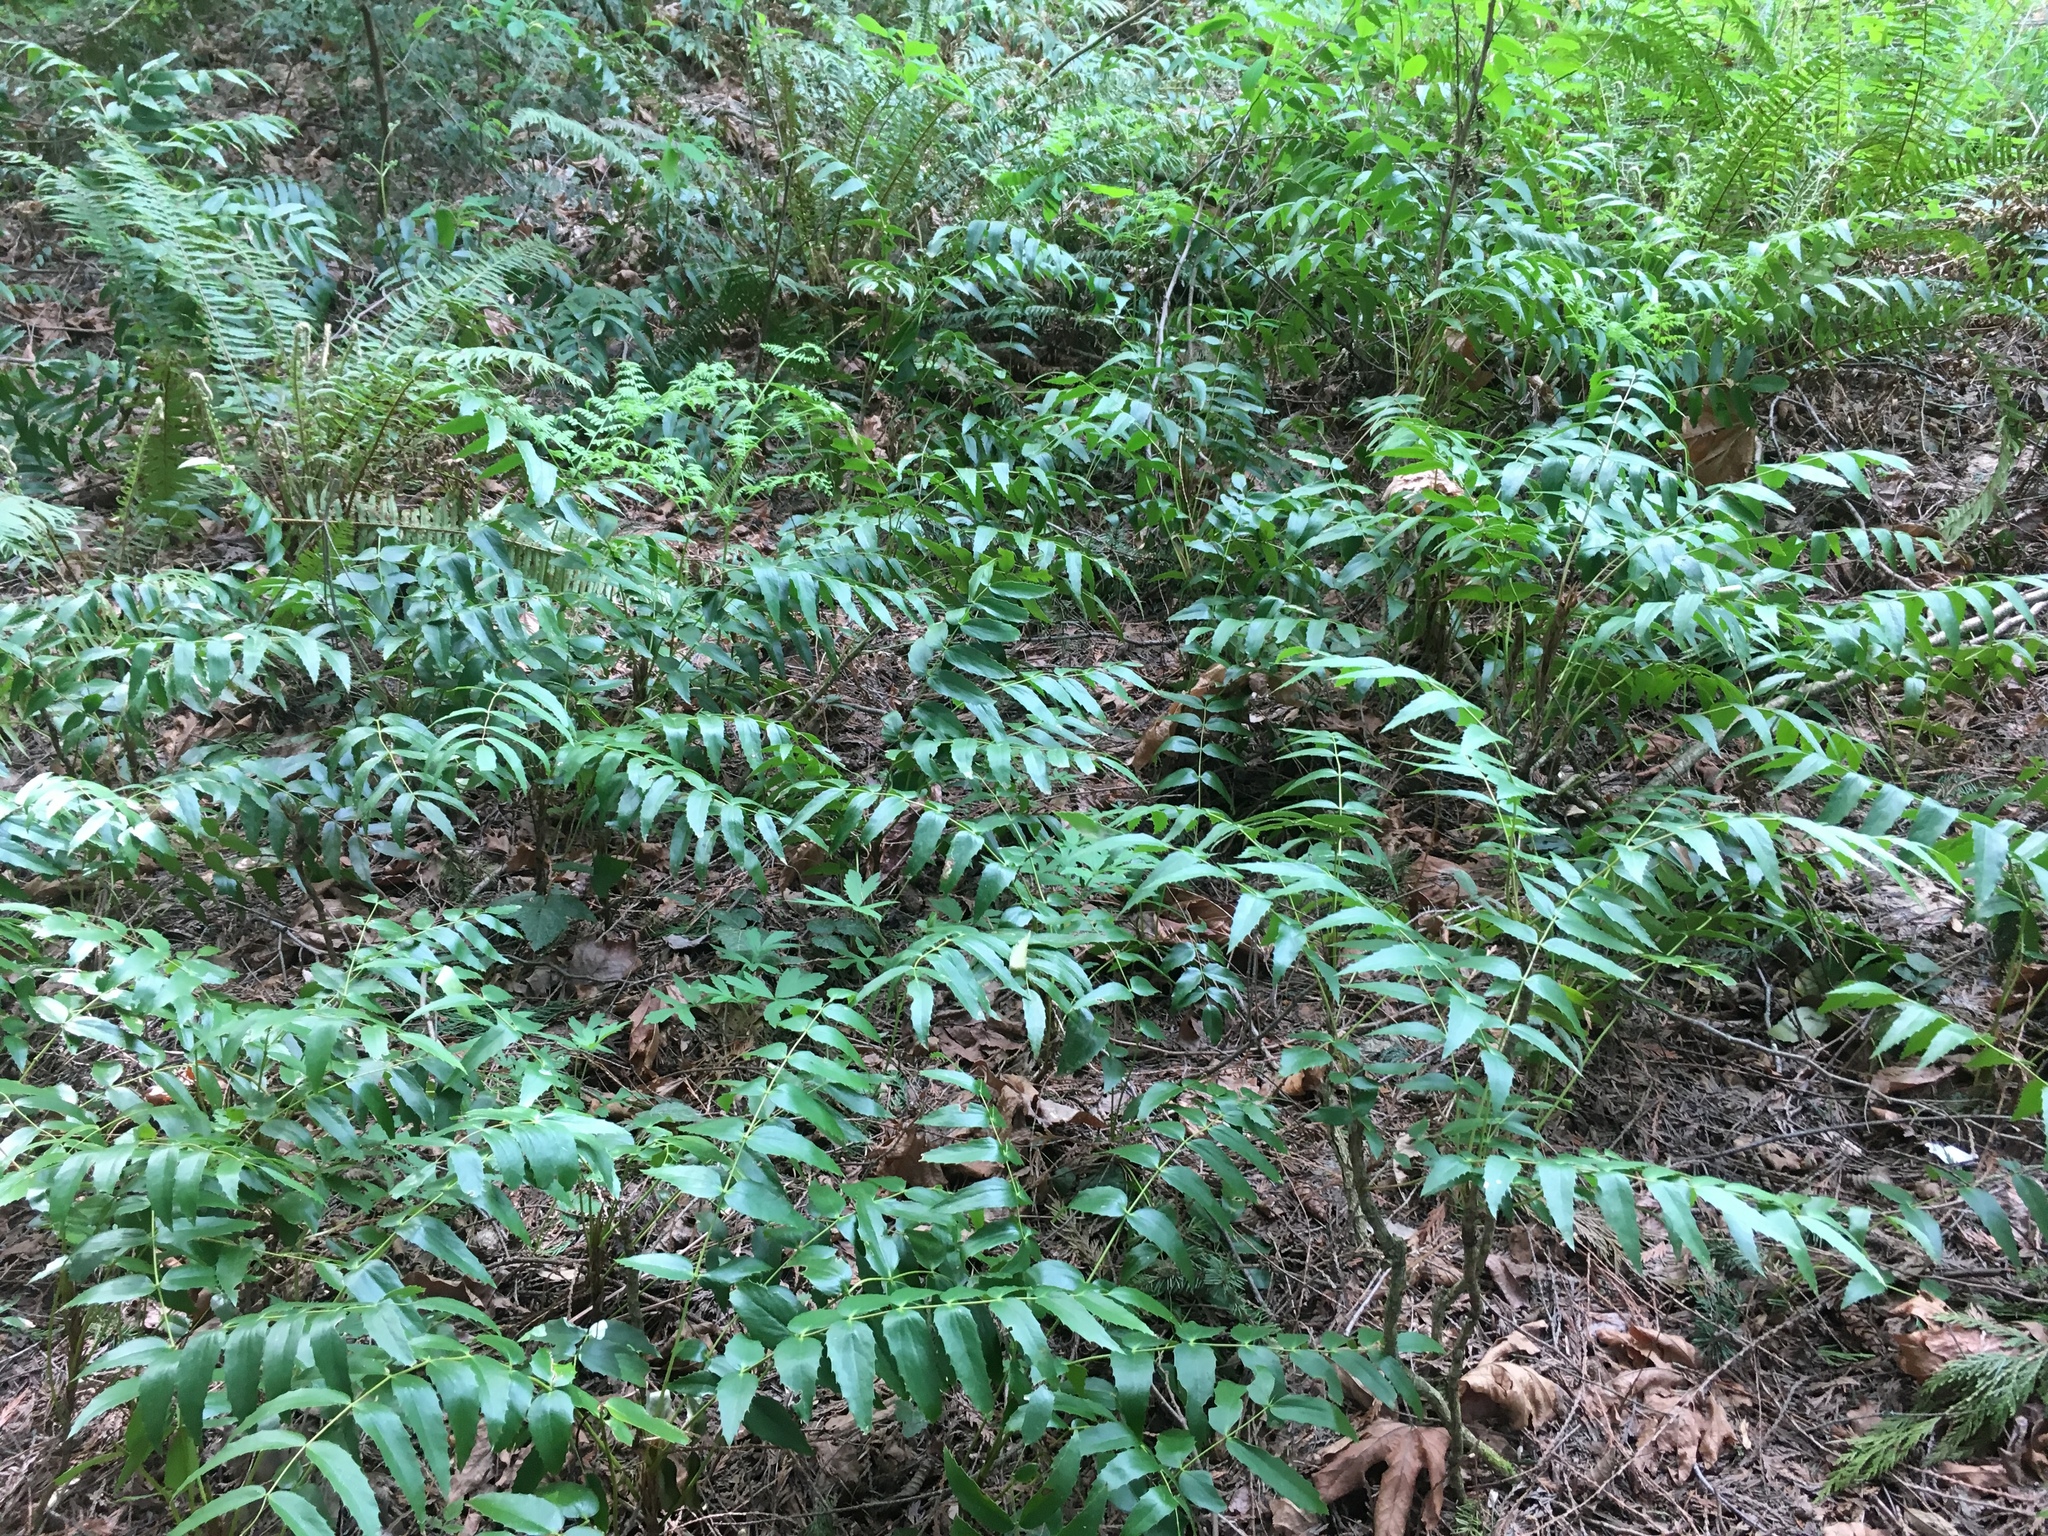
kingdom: Plantae
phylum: Tracheophyta
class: Magnoliopsida
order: Ranunculales
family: Berberidaceae
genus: Mahonia
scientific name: Mahonia nervosa
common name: Cascade oregon-grape
